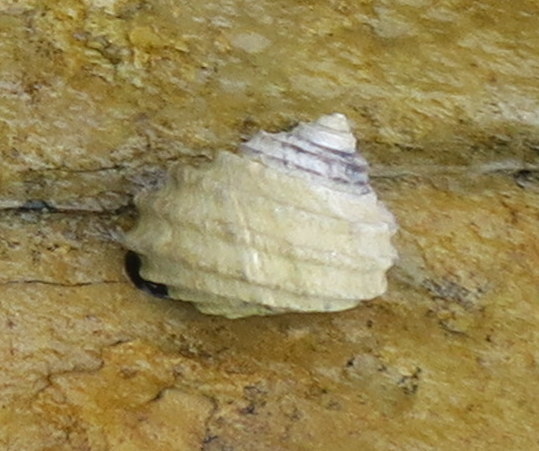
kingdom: Animalia
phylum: Mollusca
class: Gastropoda
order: Trochida
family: Trochidae
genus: Austrocochlea
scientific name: Austrocochlea constricta
